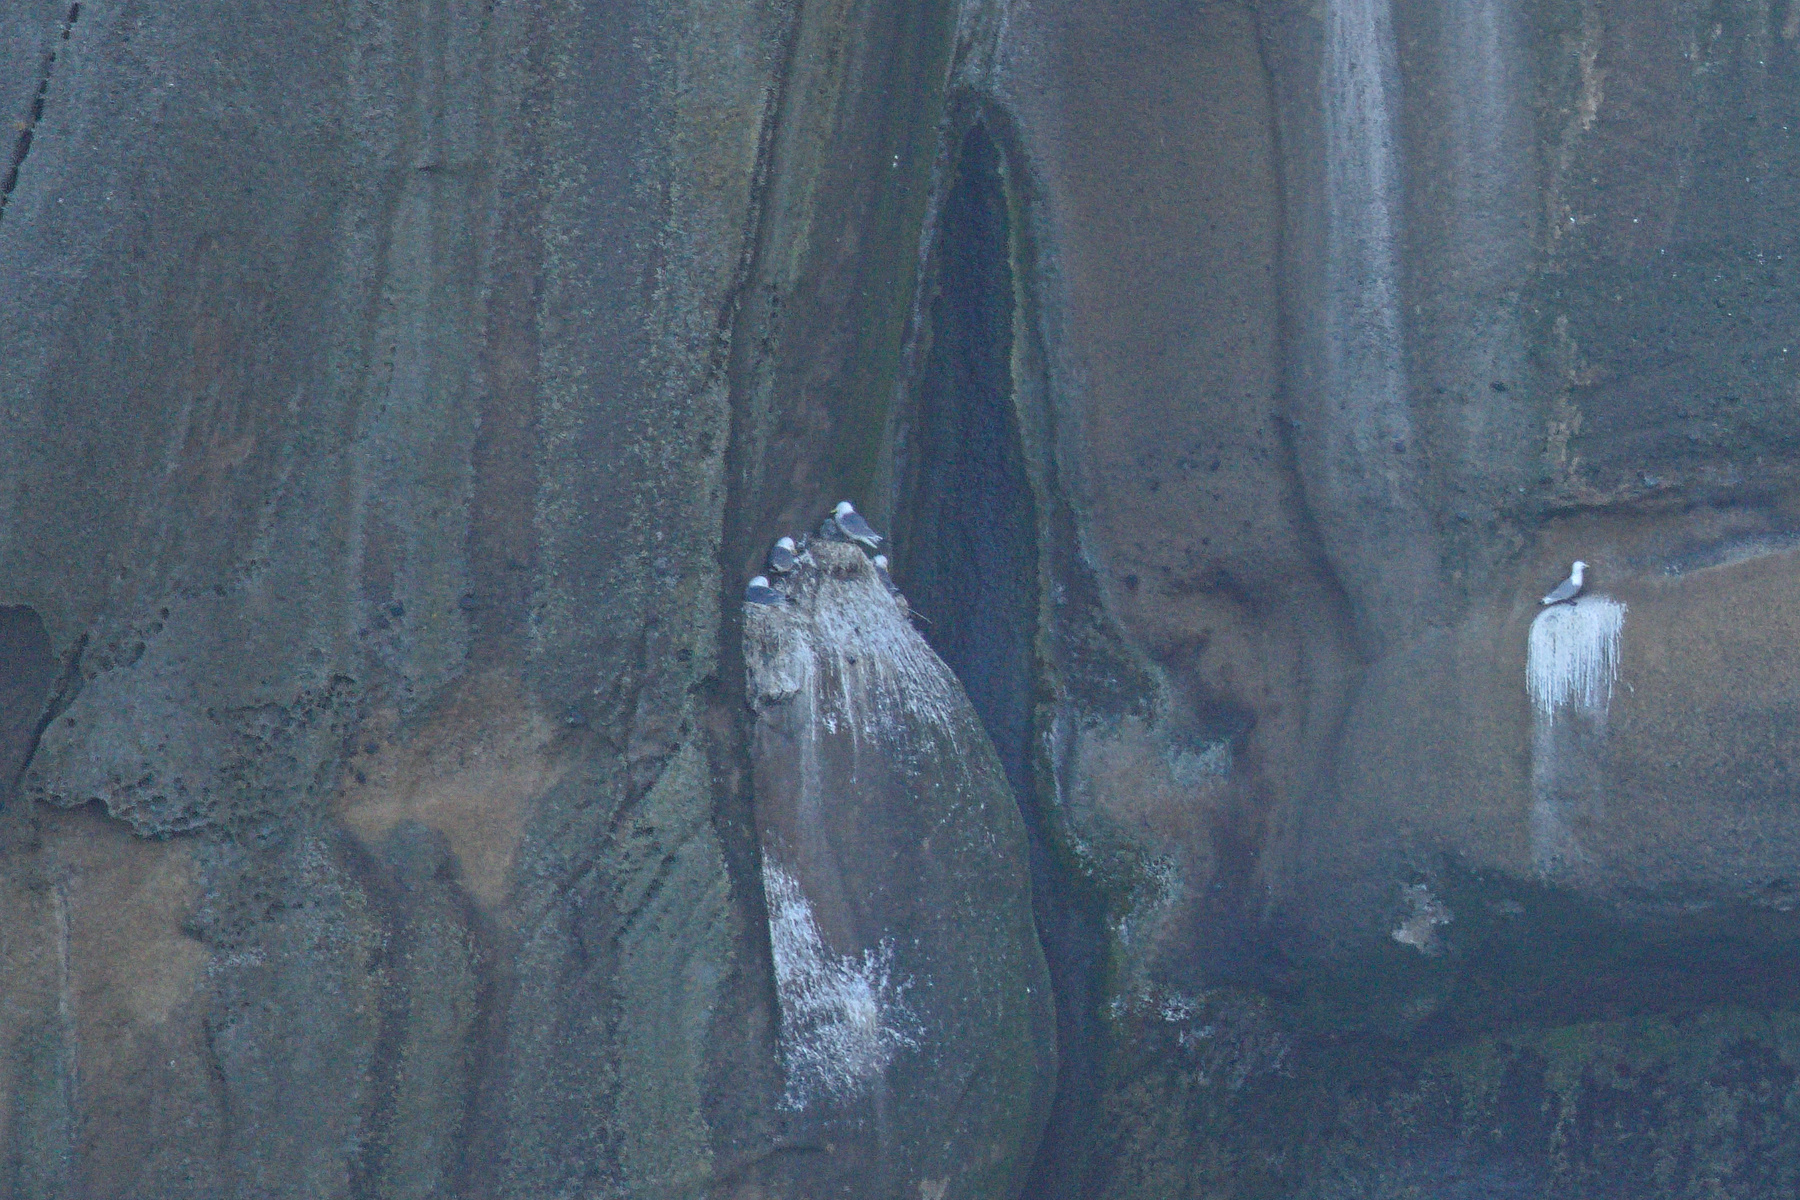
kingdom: Animalia
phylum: Chordata
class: Aves
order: Charadriiformes
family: Laridae
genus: Rissa
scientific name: Rissa tridactyla
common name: Black-legged kittiwake
